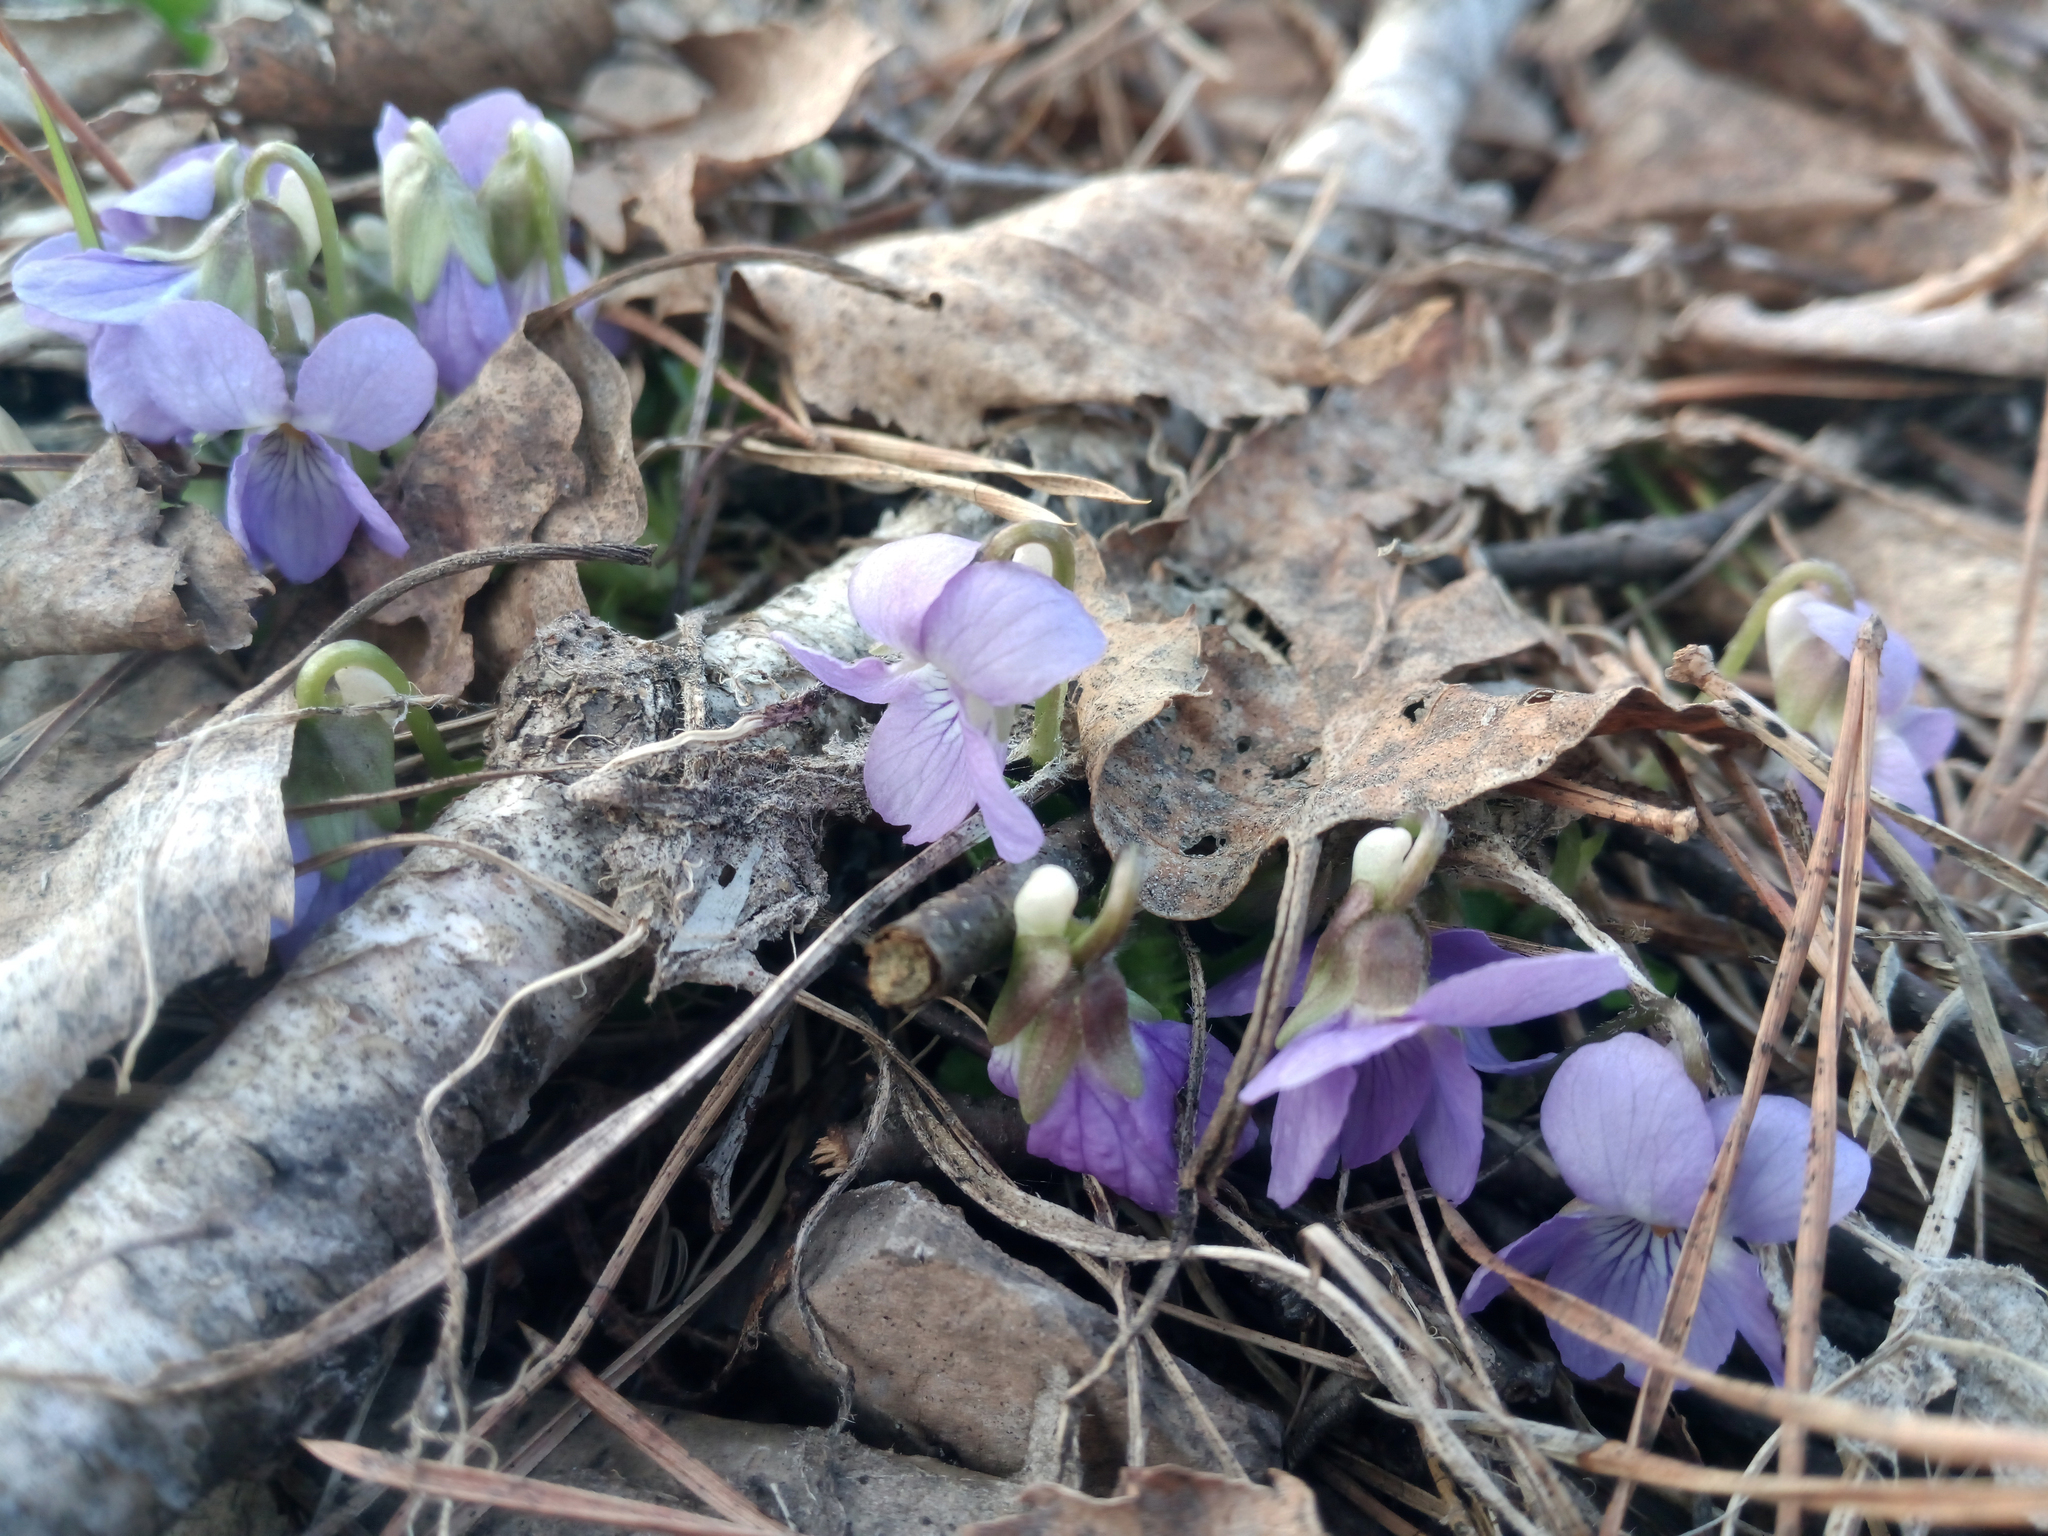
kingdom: Plantae
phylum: Tracheophyta
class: Magnoliopsida
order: Malpighiales
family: Violaceae
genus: Viola
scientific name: Viola collina
